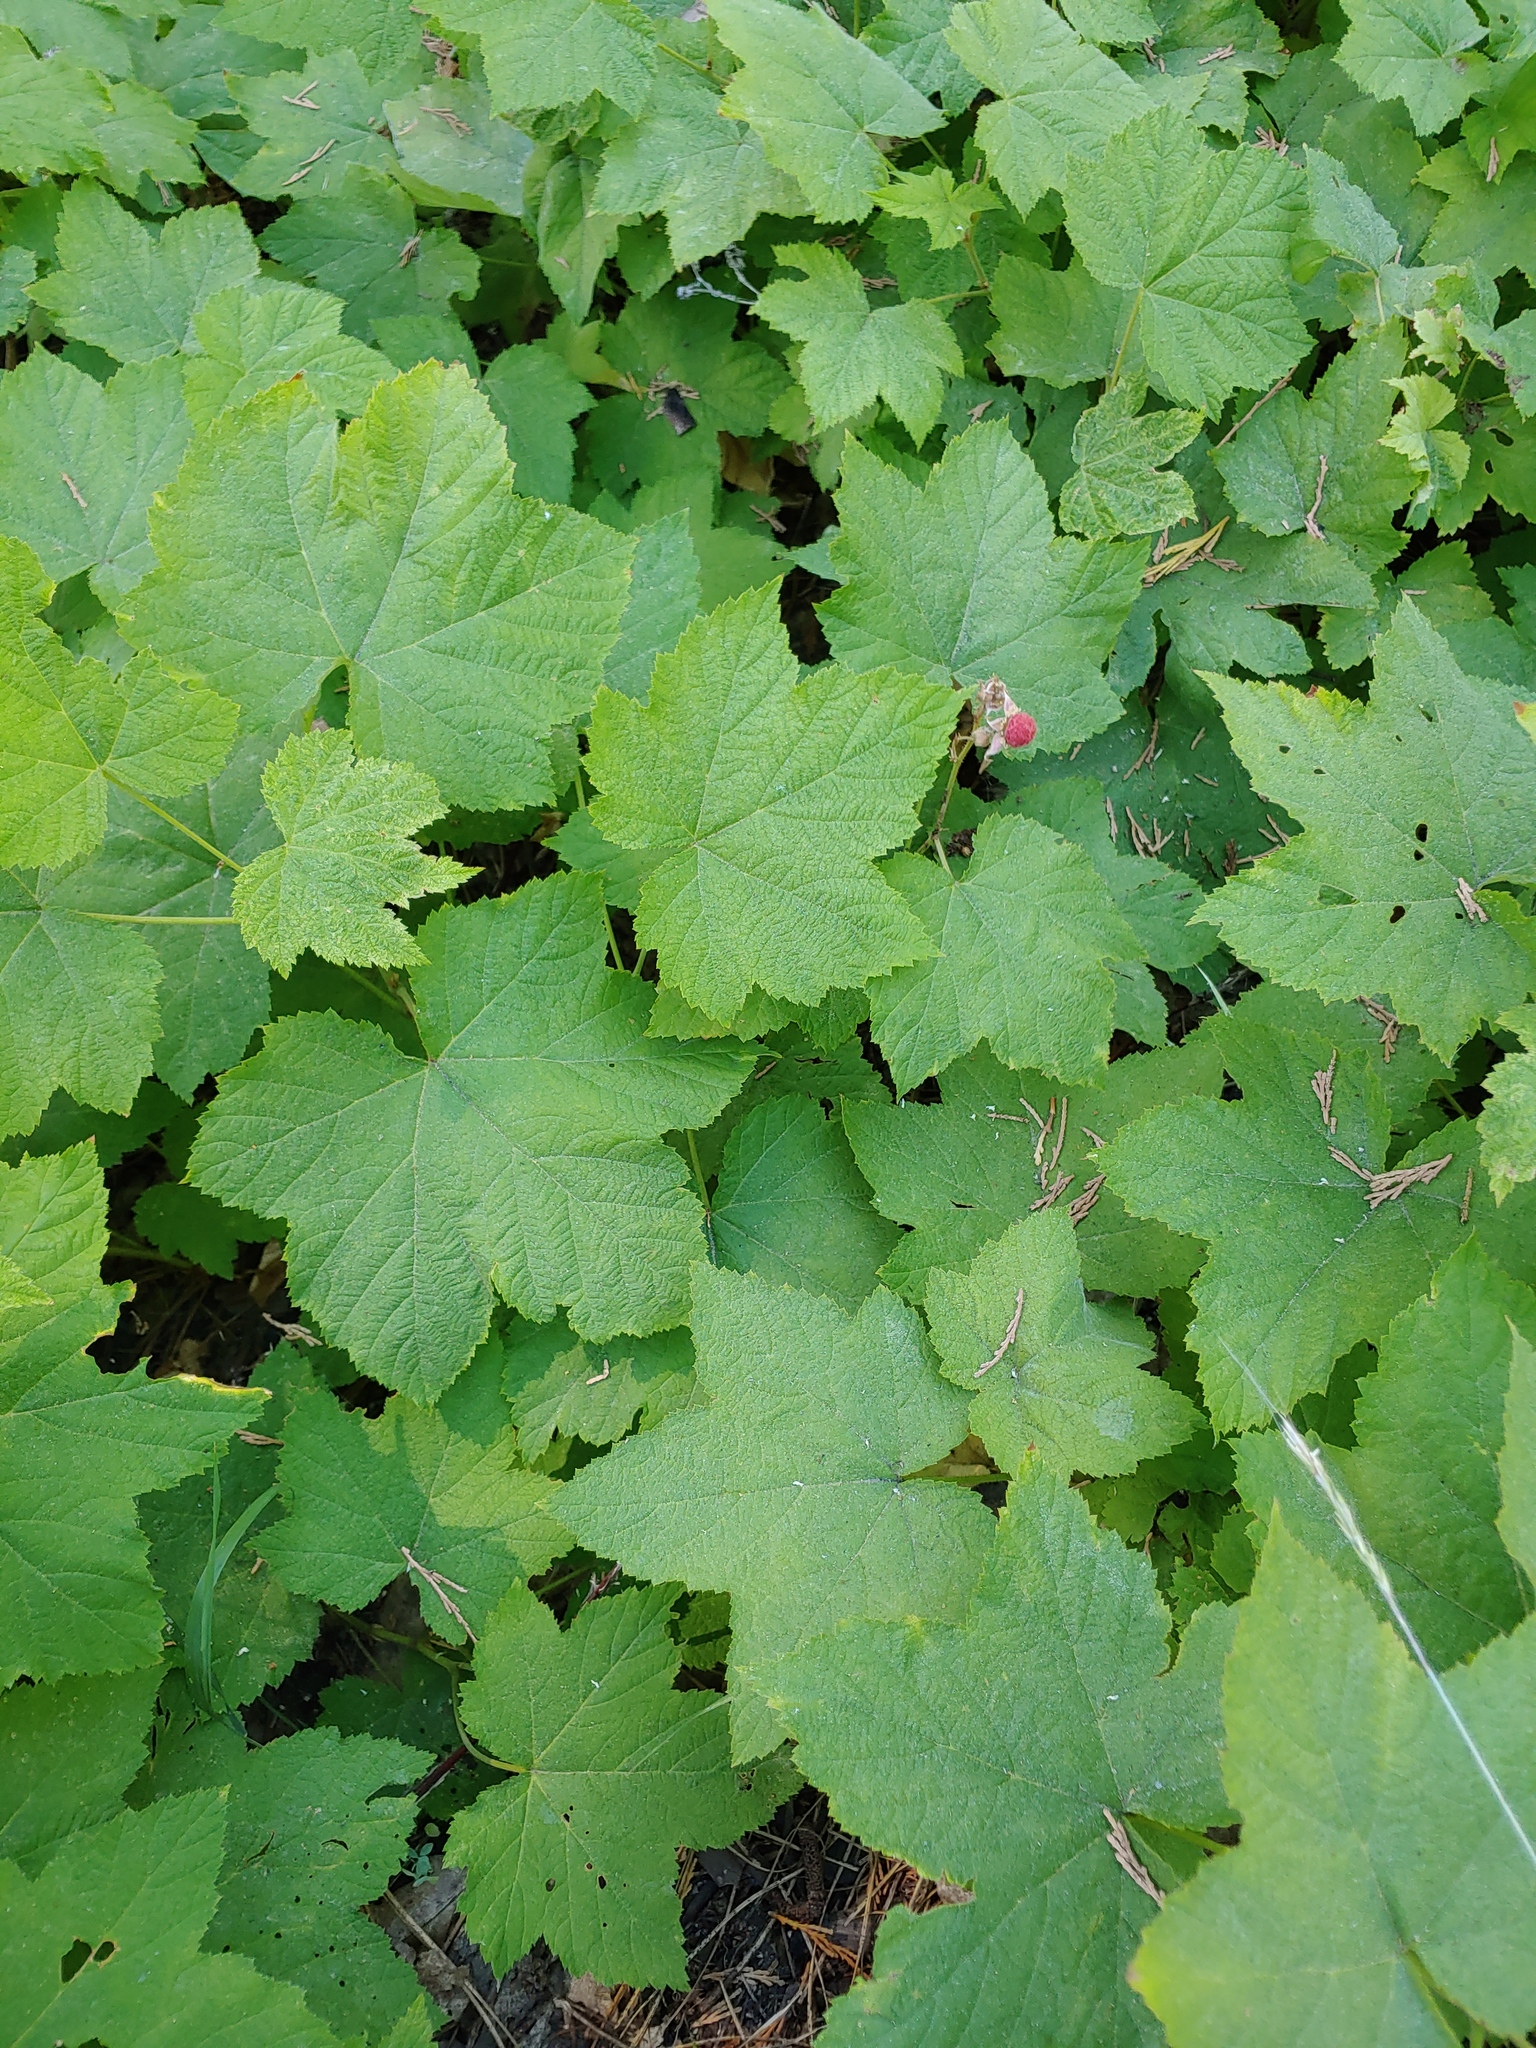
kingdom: Plantae
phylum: Tracheophyta
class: Magnoliopsida
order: Rosales
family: Rosaceae
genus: Rubus
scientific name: Rubus parviflorus
